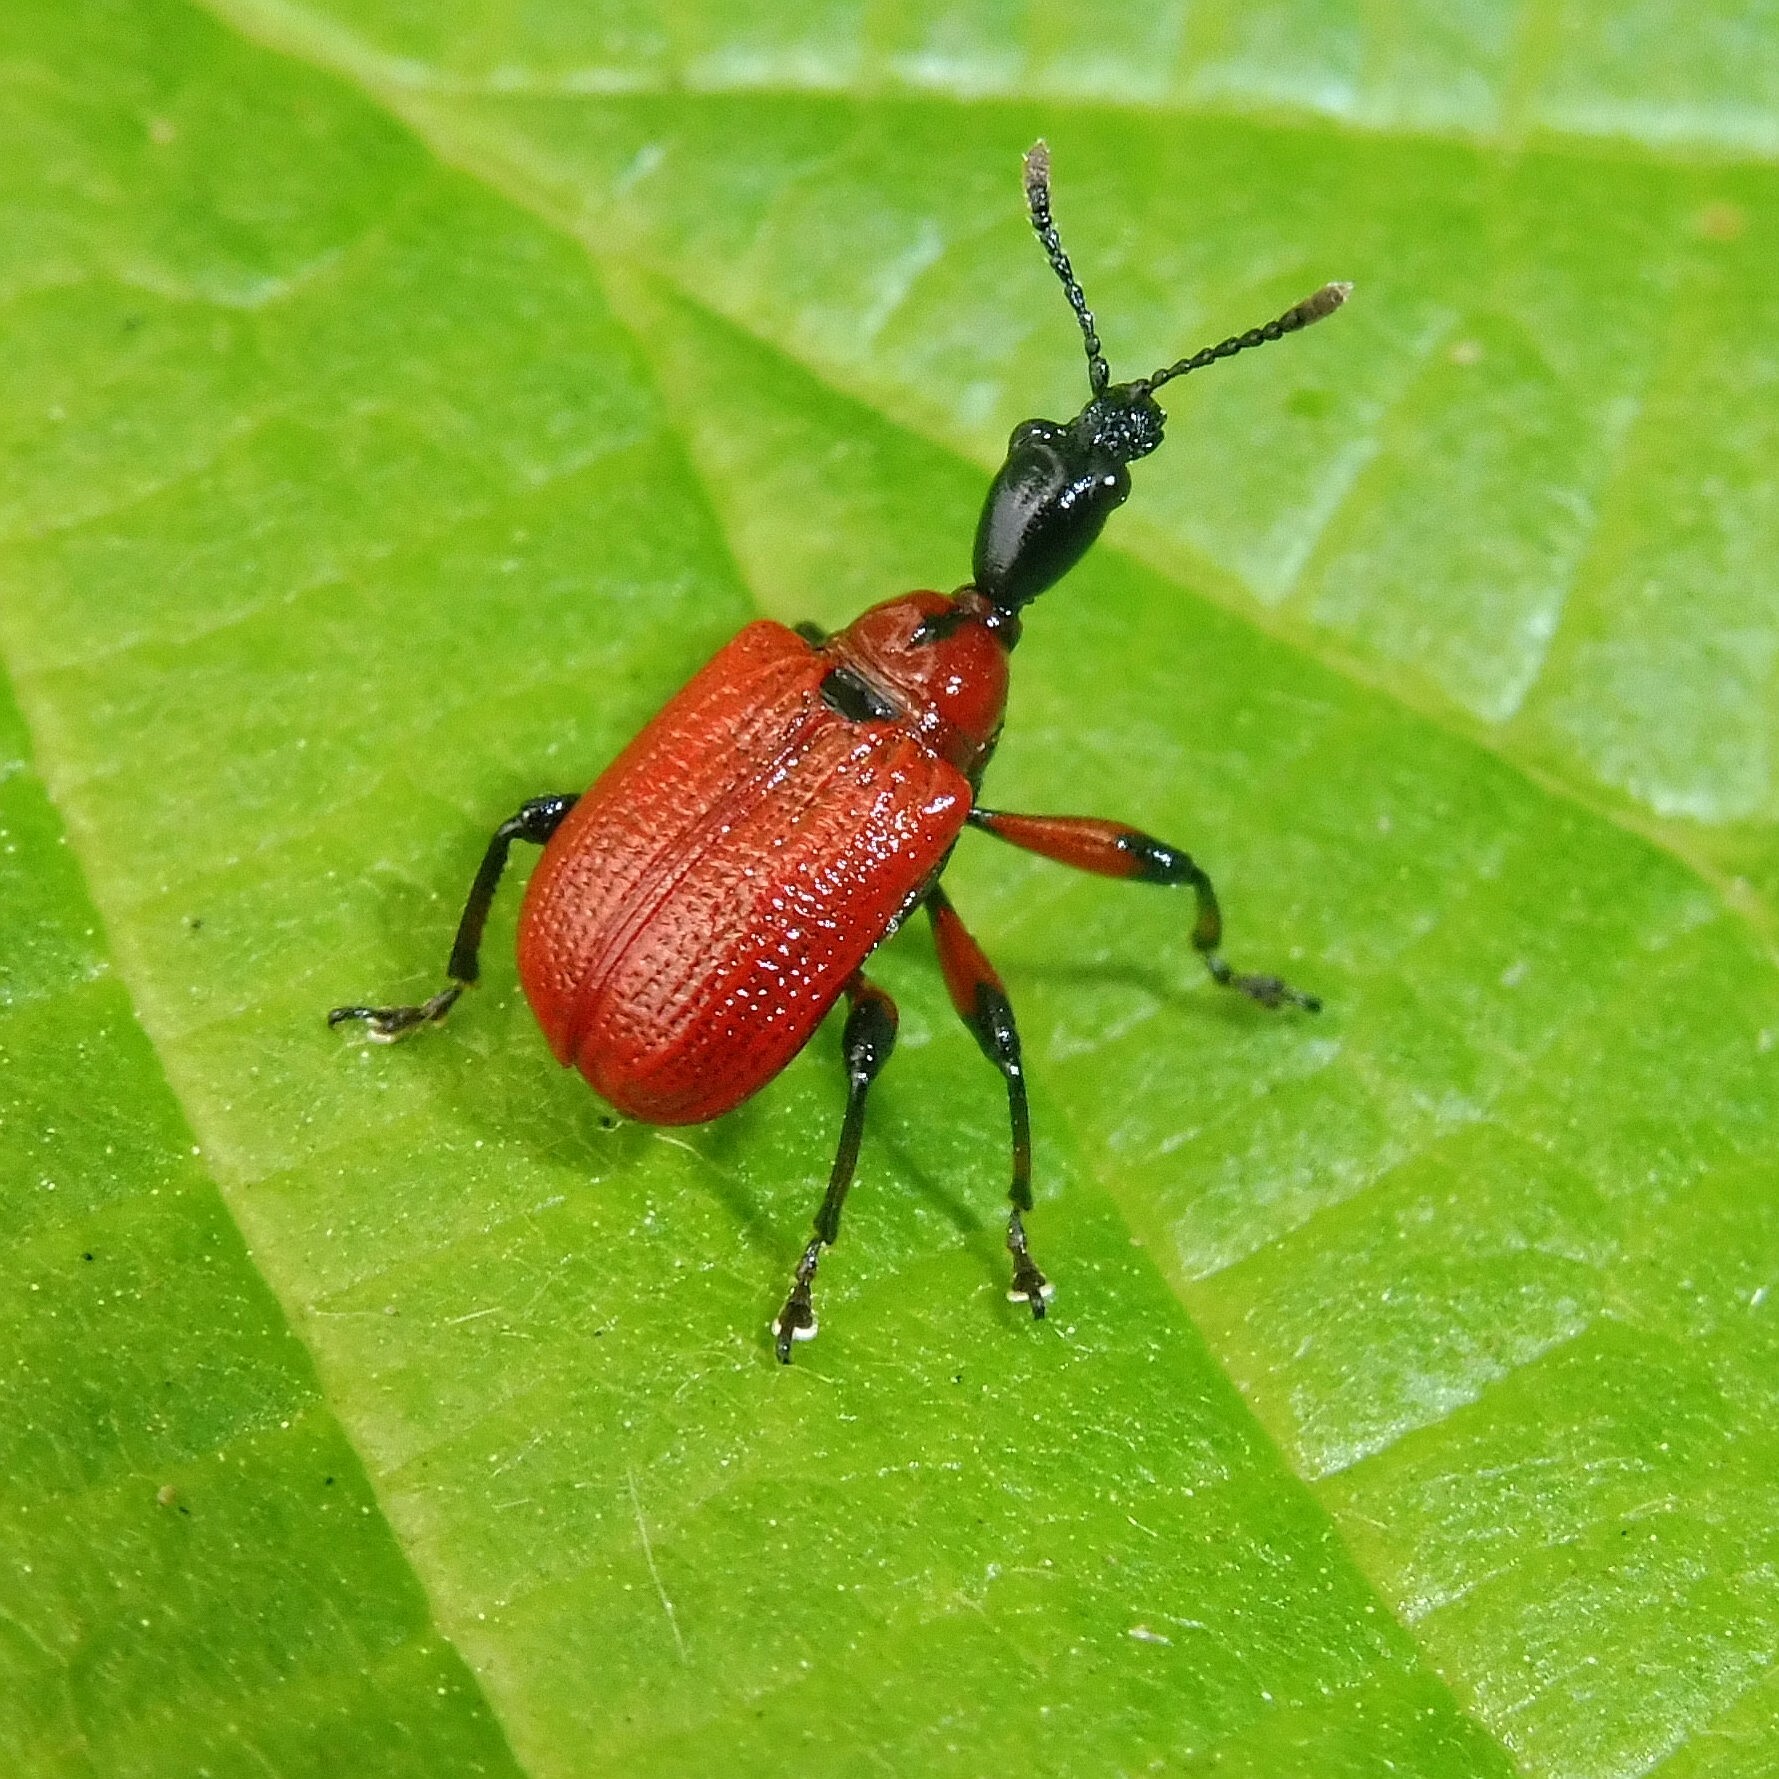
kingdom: Animalia
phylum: Arthropoda
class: Insecta
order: Coleoptera
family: Attelabidae
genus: Apoderus
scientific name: Apoderus coryli
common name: Hazel leaf roller
